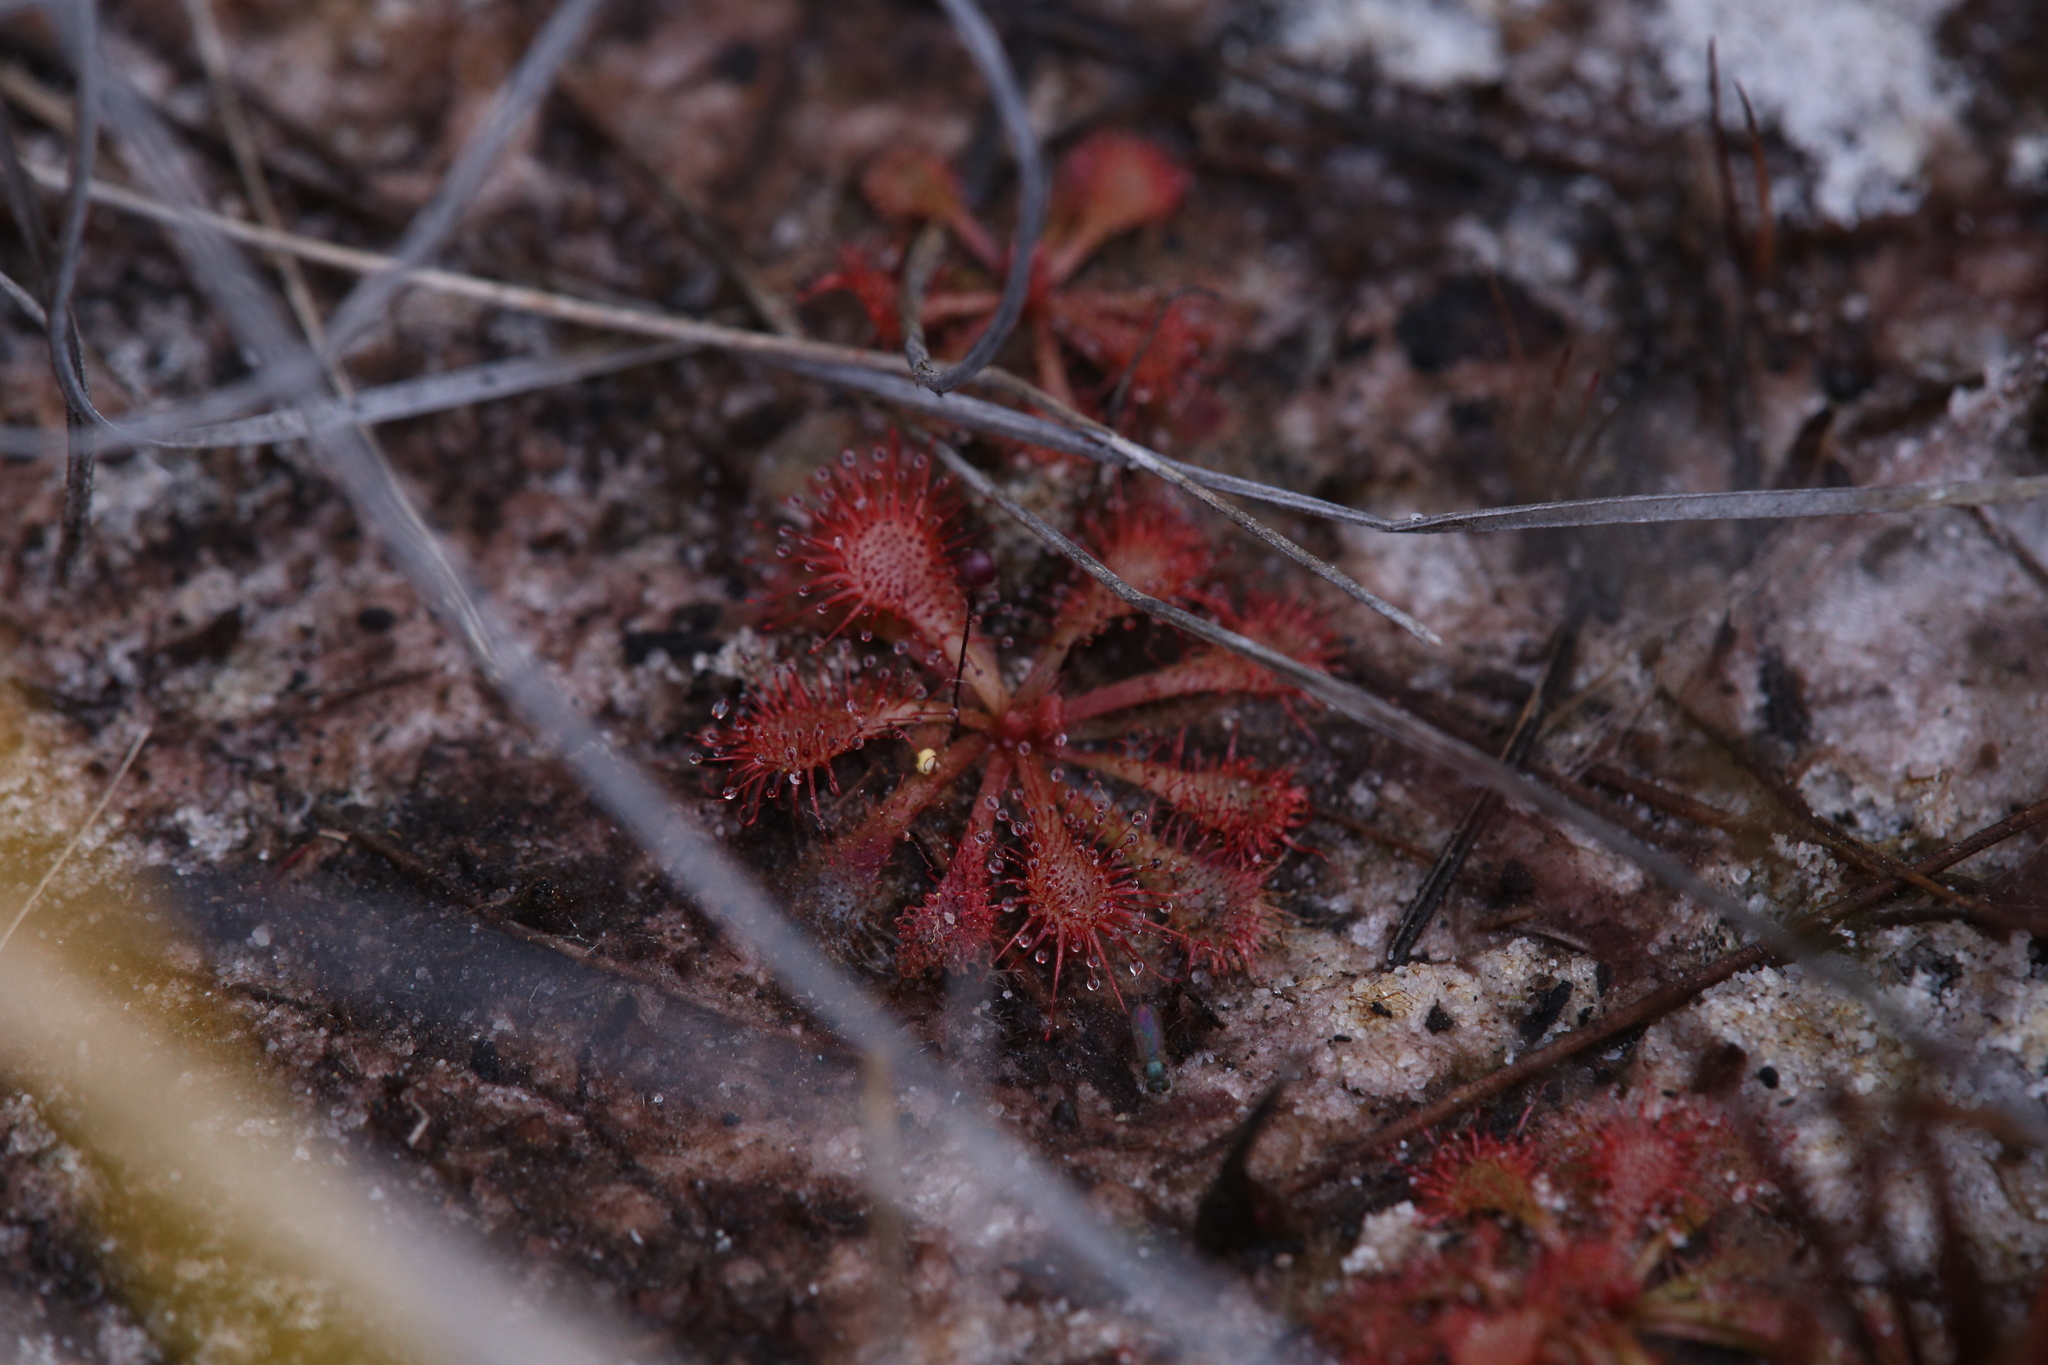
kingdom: Plantae
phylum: Tracheophyta
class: Magnoliopsida
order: Caryophyllales
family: Droseraceae
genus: Drosera
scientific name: Drosera spatulata
